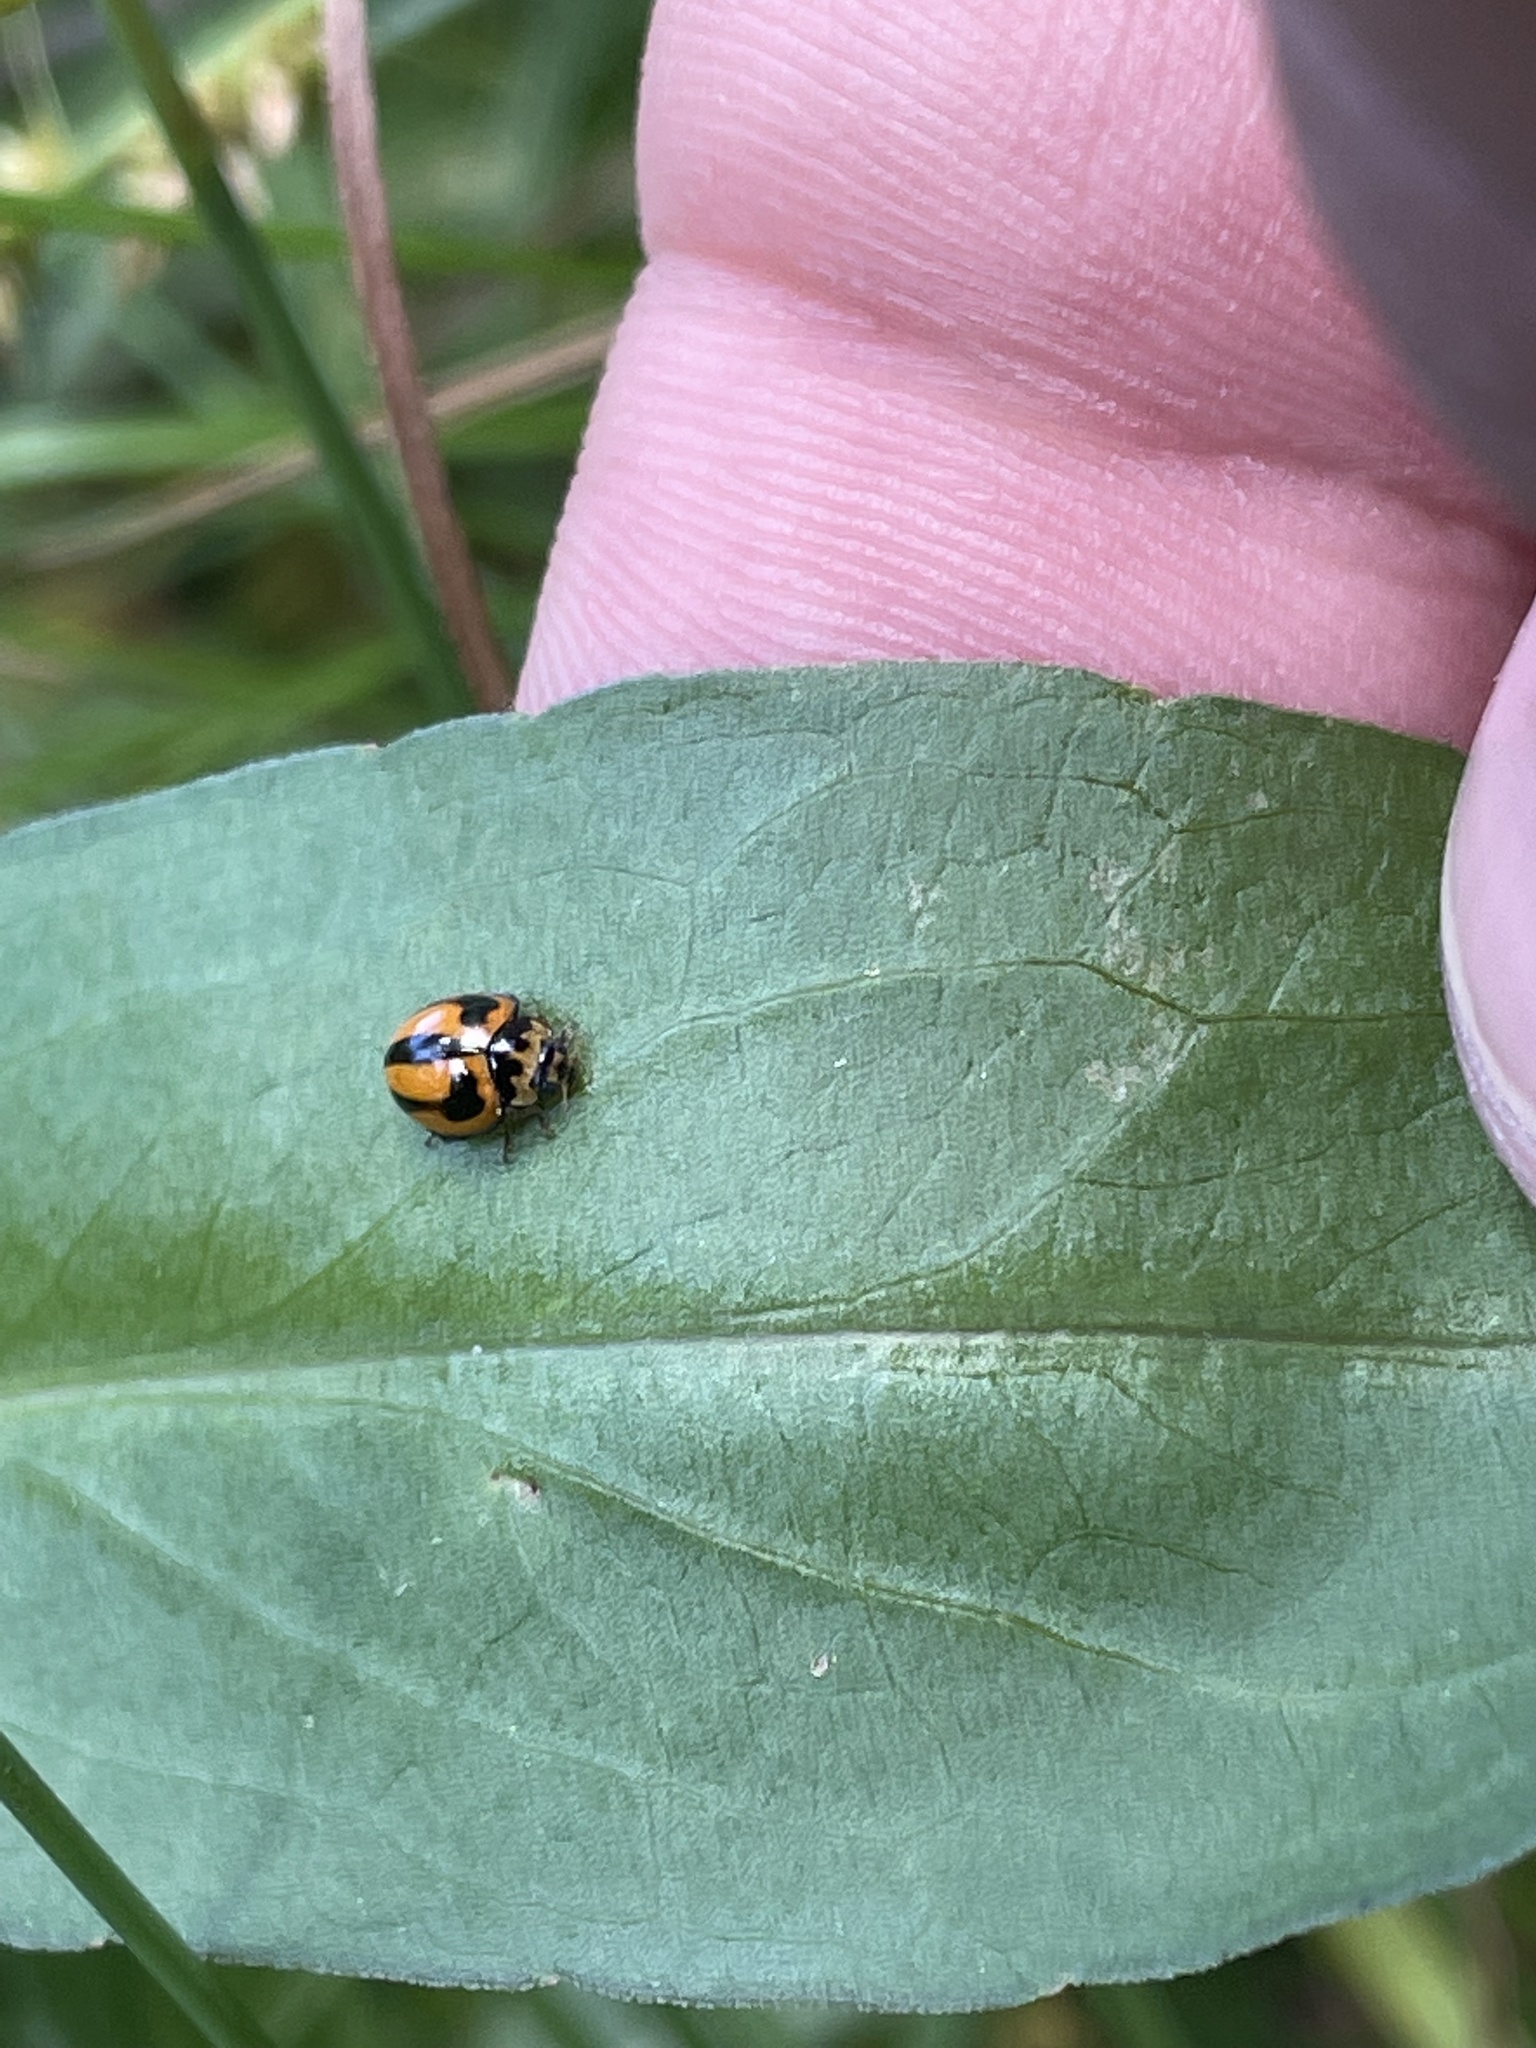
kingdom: Animalia
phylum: Arthropoda
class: Insecta
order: Coleoptera
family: Coccinellidae
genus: Micraspis
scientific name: Micraspis frenata
